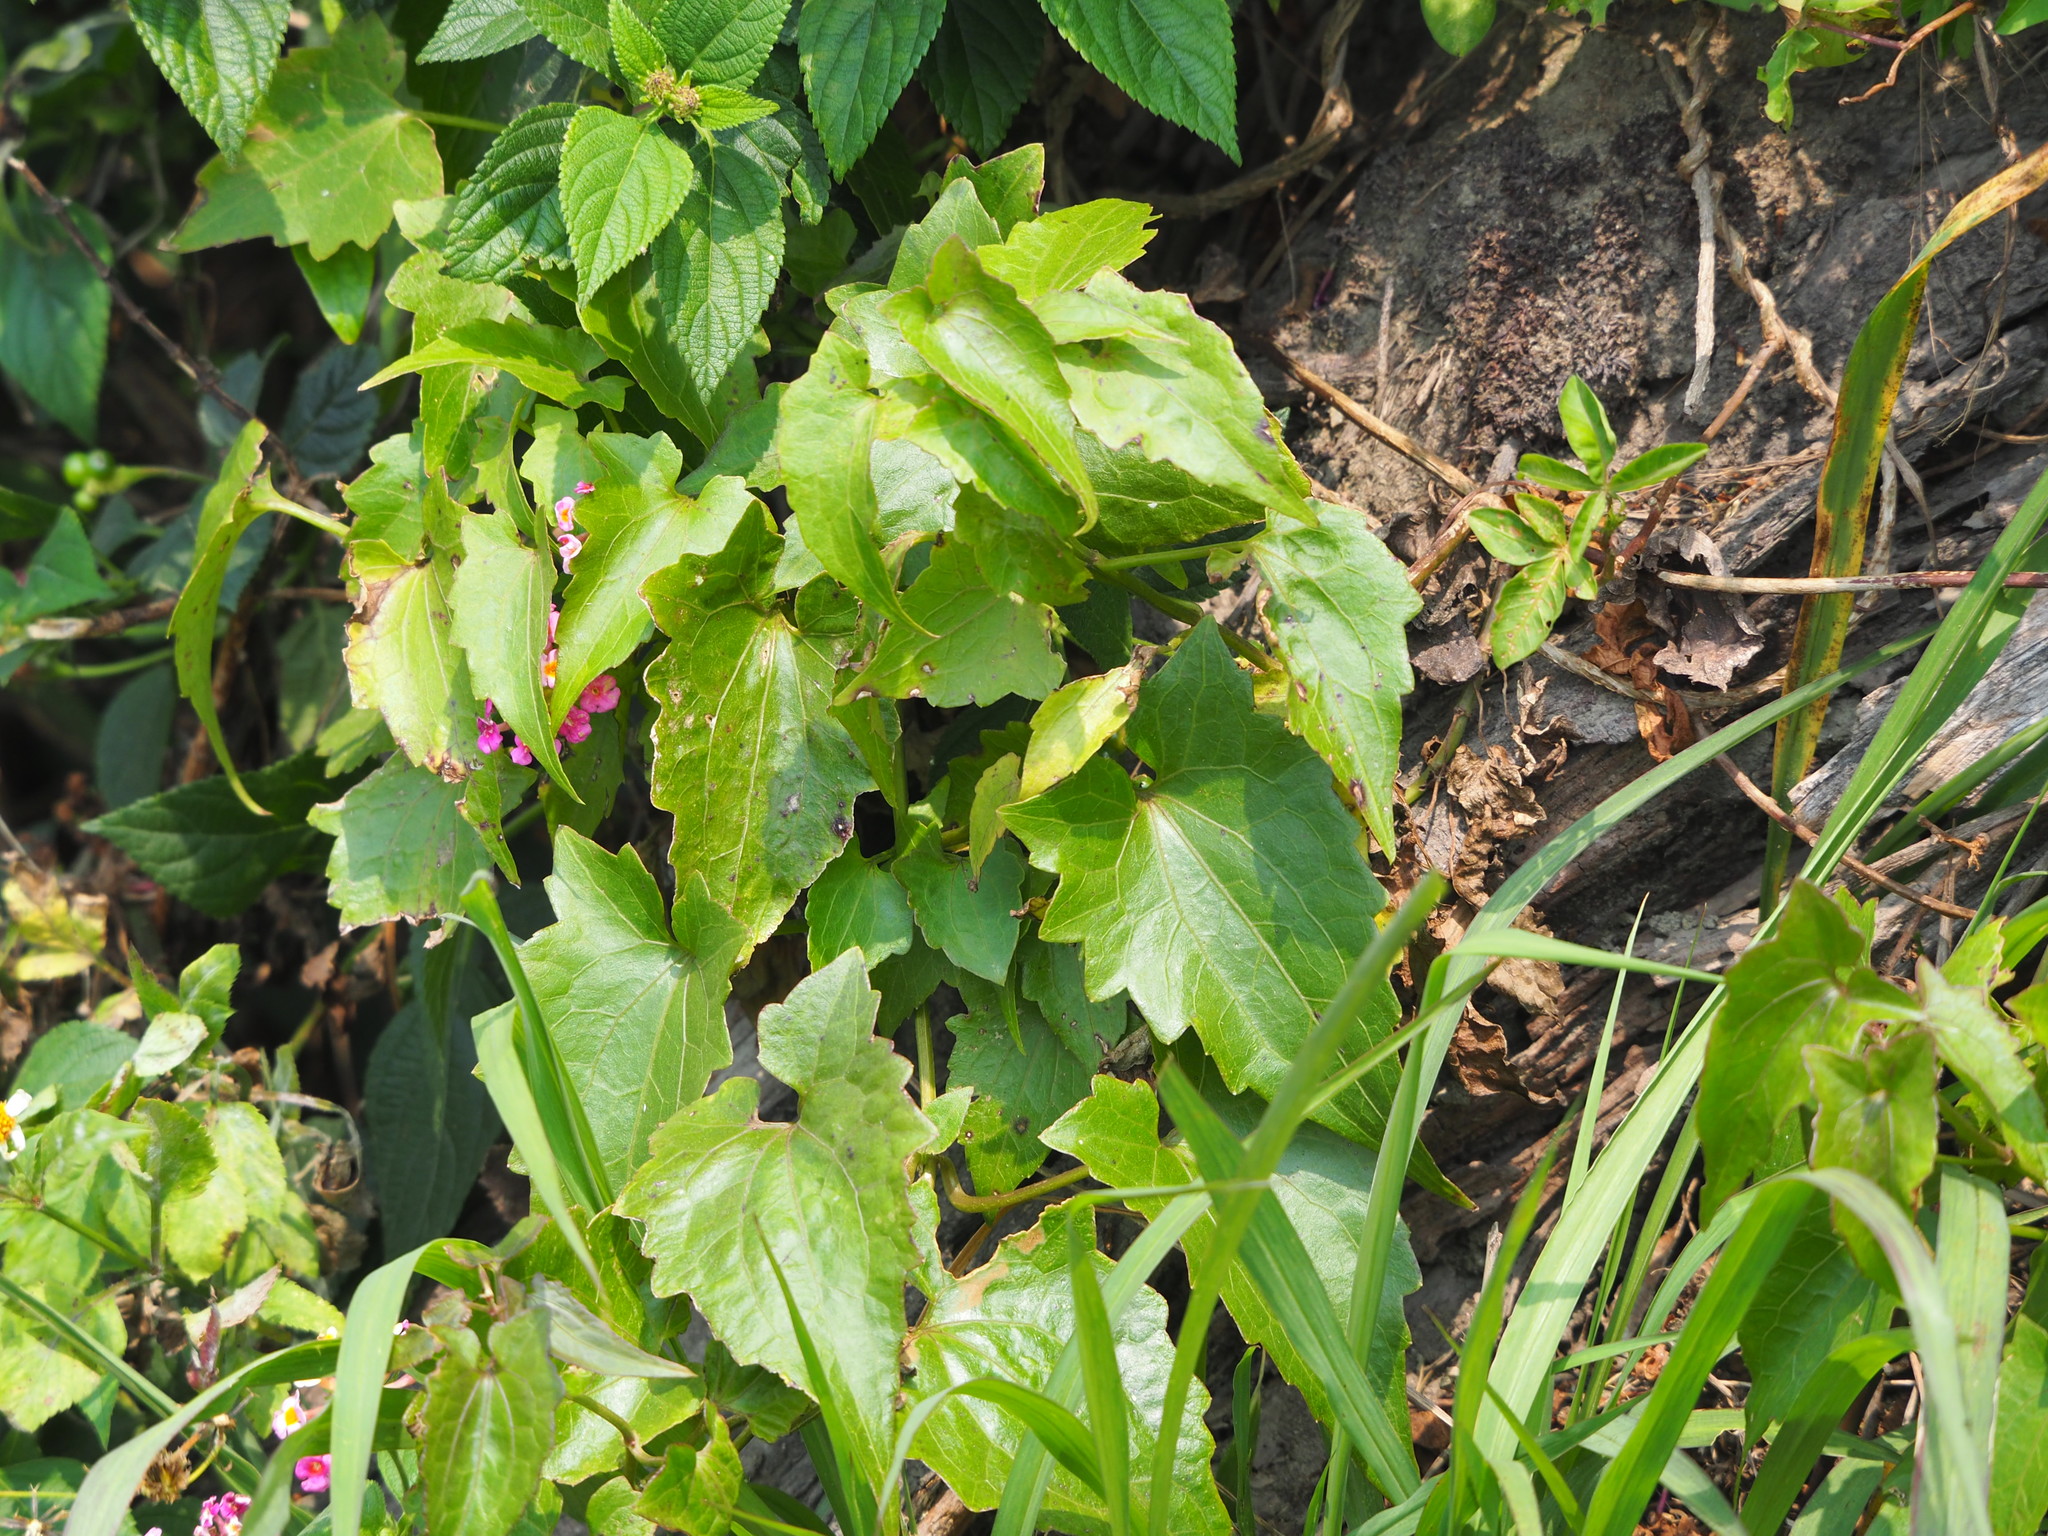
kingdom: Plantae
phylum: Tracheophyta
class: Magnoliopsida
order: Asterales
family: Asteraceae
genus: Mikania
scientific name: Mikania micrantha
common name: Mile-a-minute
